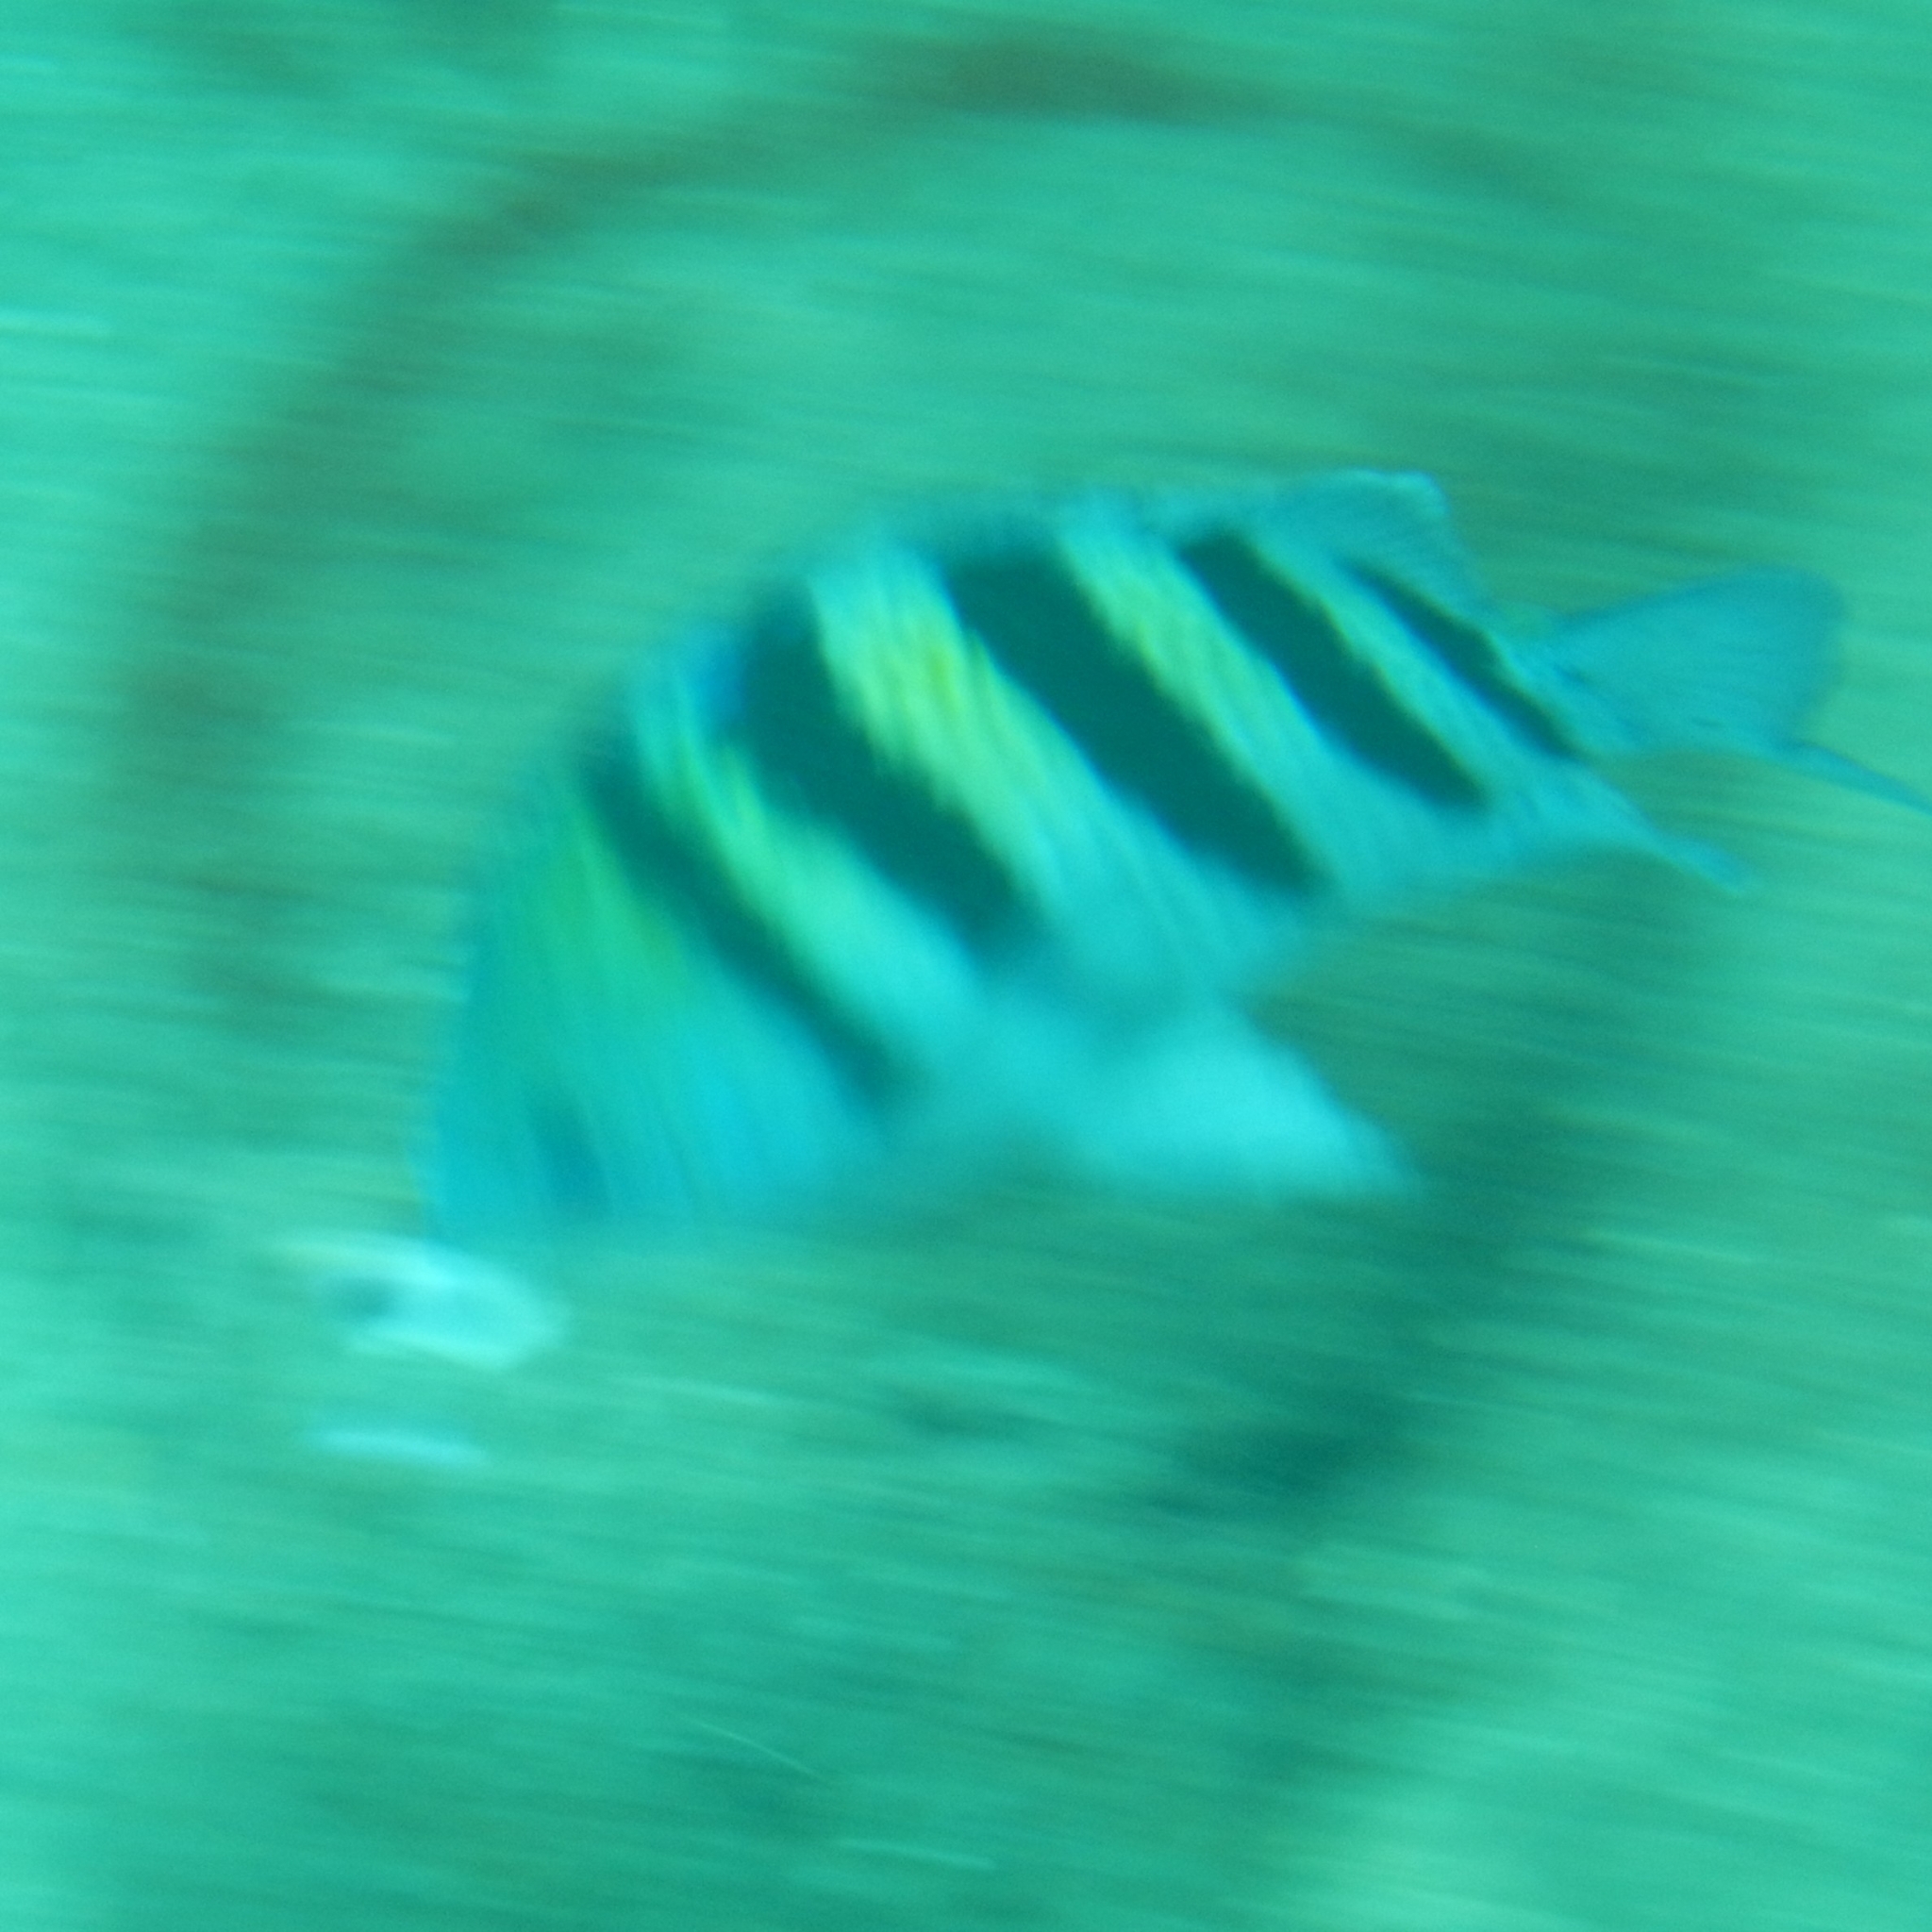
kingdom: Animalia
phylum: Chordata
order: Perciformes
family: Pomacentridae
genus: Abudefduf
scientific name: Abudefduf saxatilis
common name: Sergeant major
